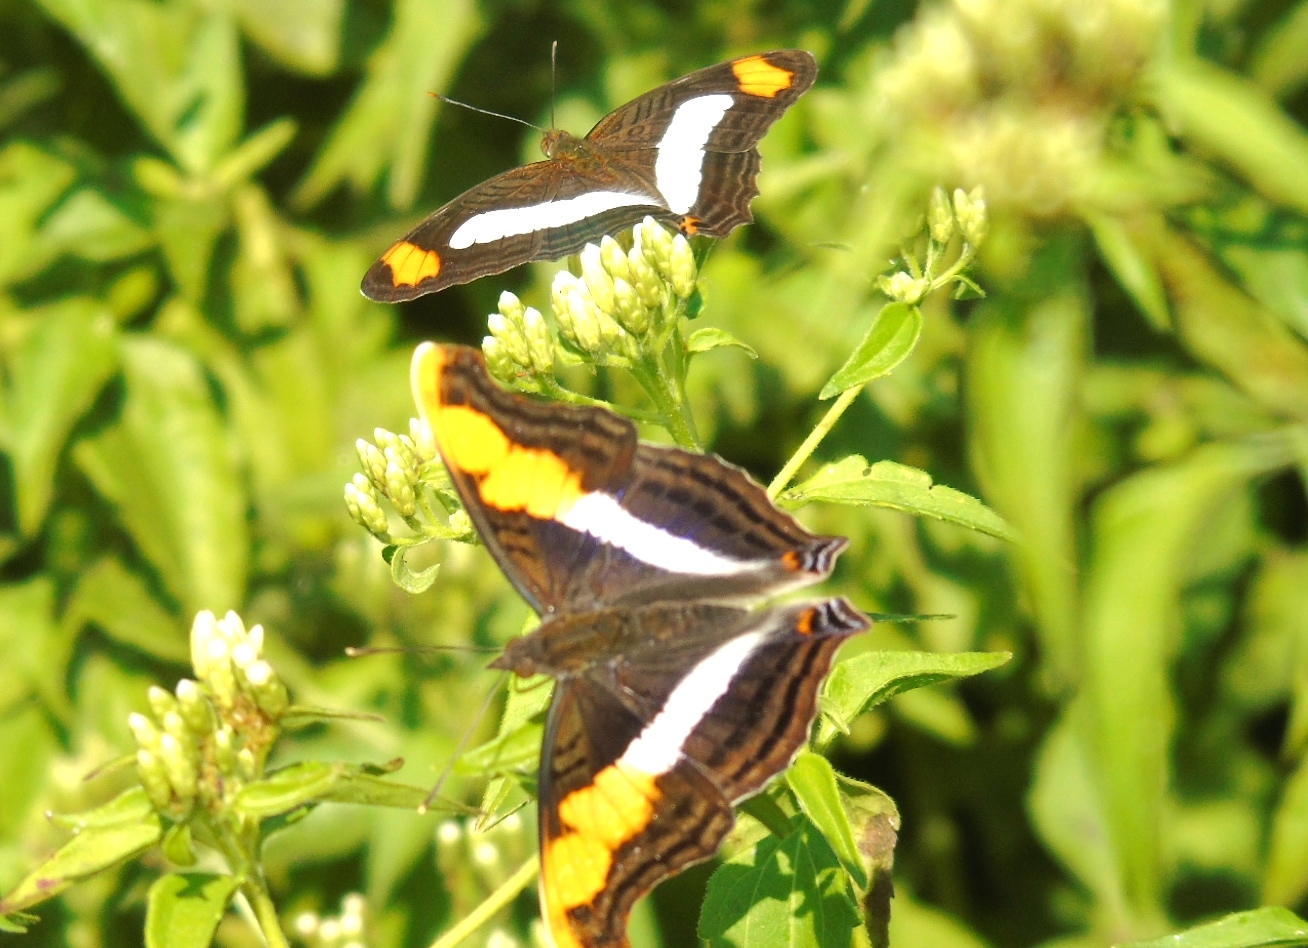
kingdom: Animalia
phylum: Arthropoda
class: Insecta
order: Lepidoptera
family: Nymphalidae
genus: Doxocopa
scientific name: Doxocopa laure
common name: Silver emperor
